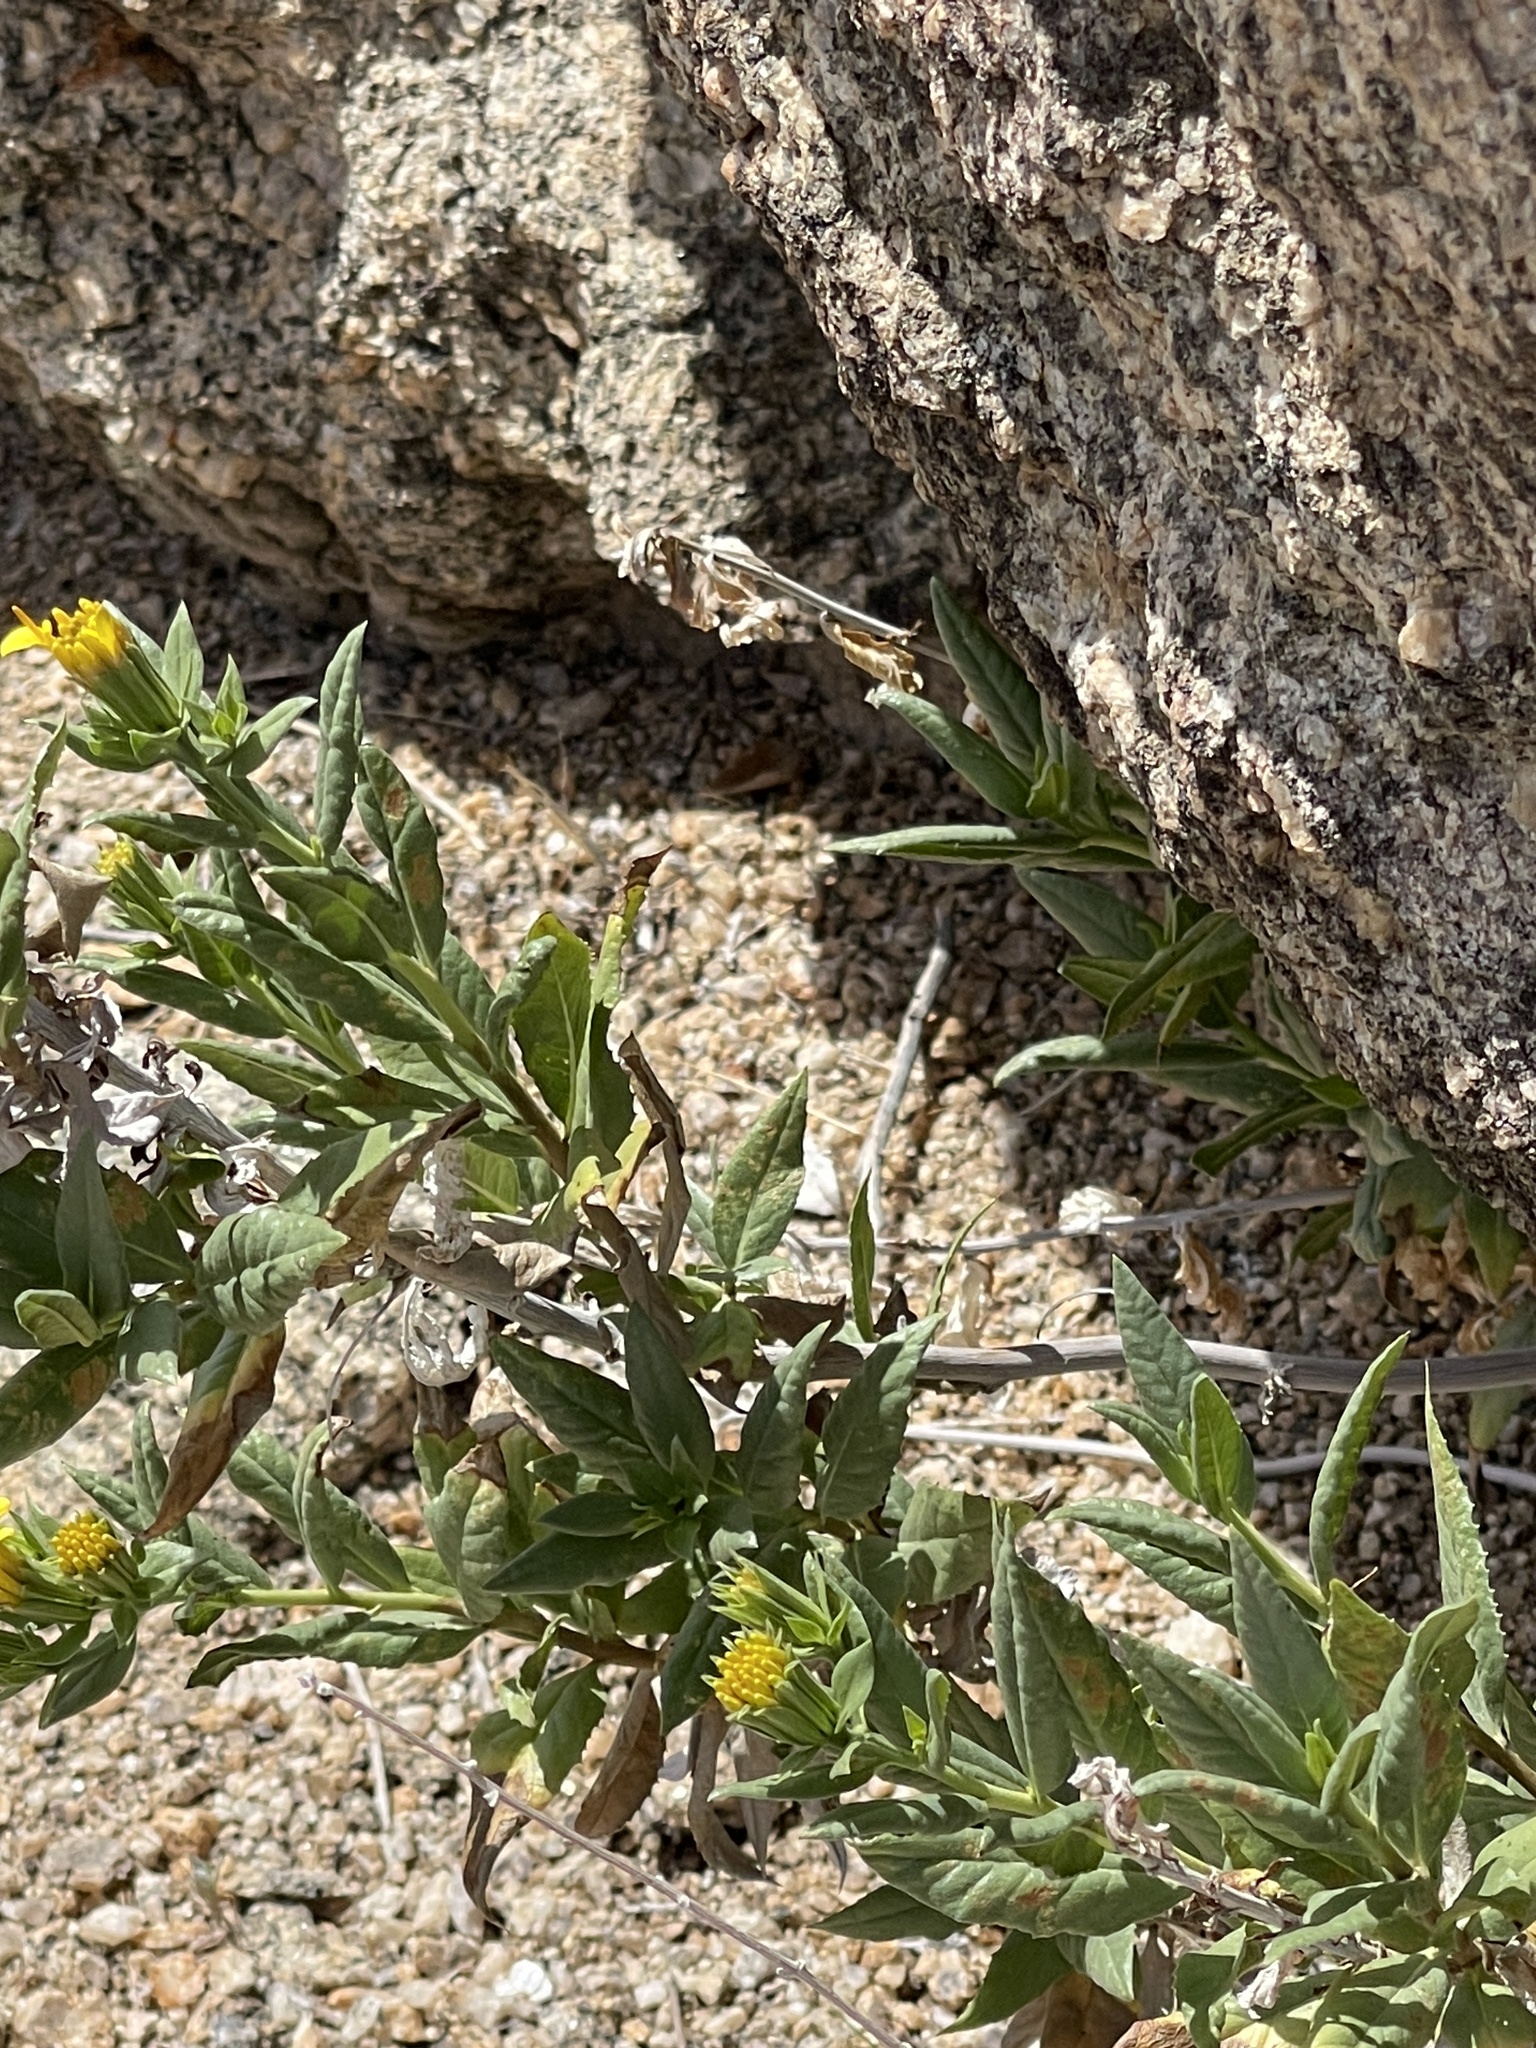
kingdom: Plantae
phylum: Tracheophyta
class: Magnoliopsida
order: Asterales
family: Asteraceae
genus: Trixis
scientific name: Trixis californica
